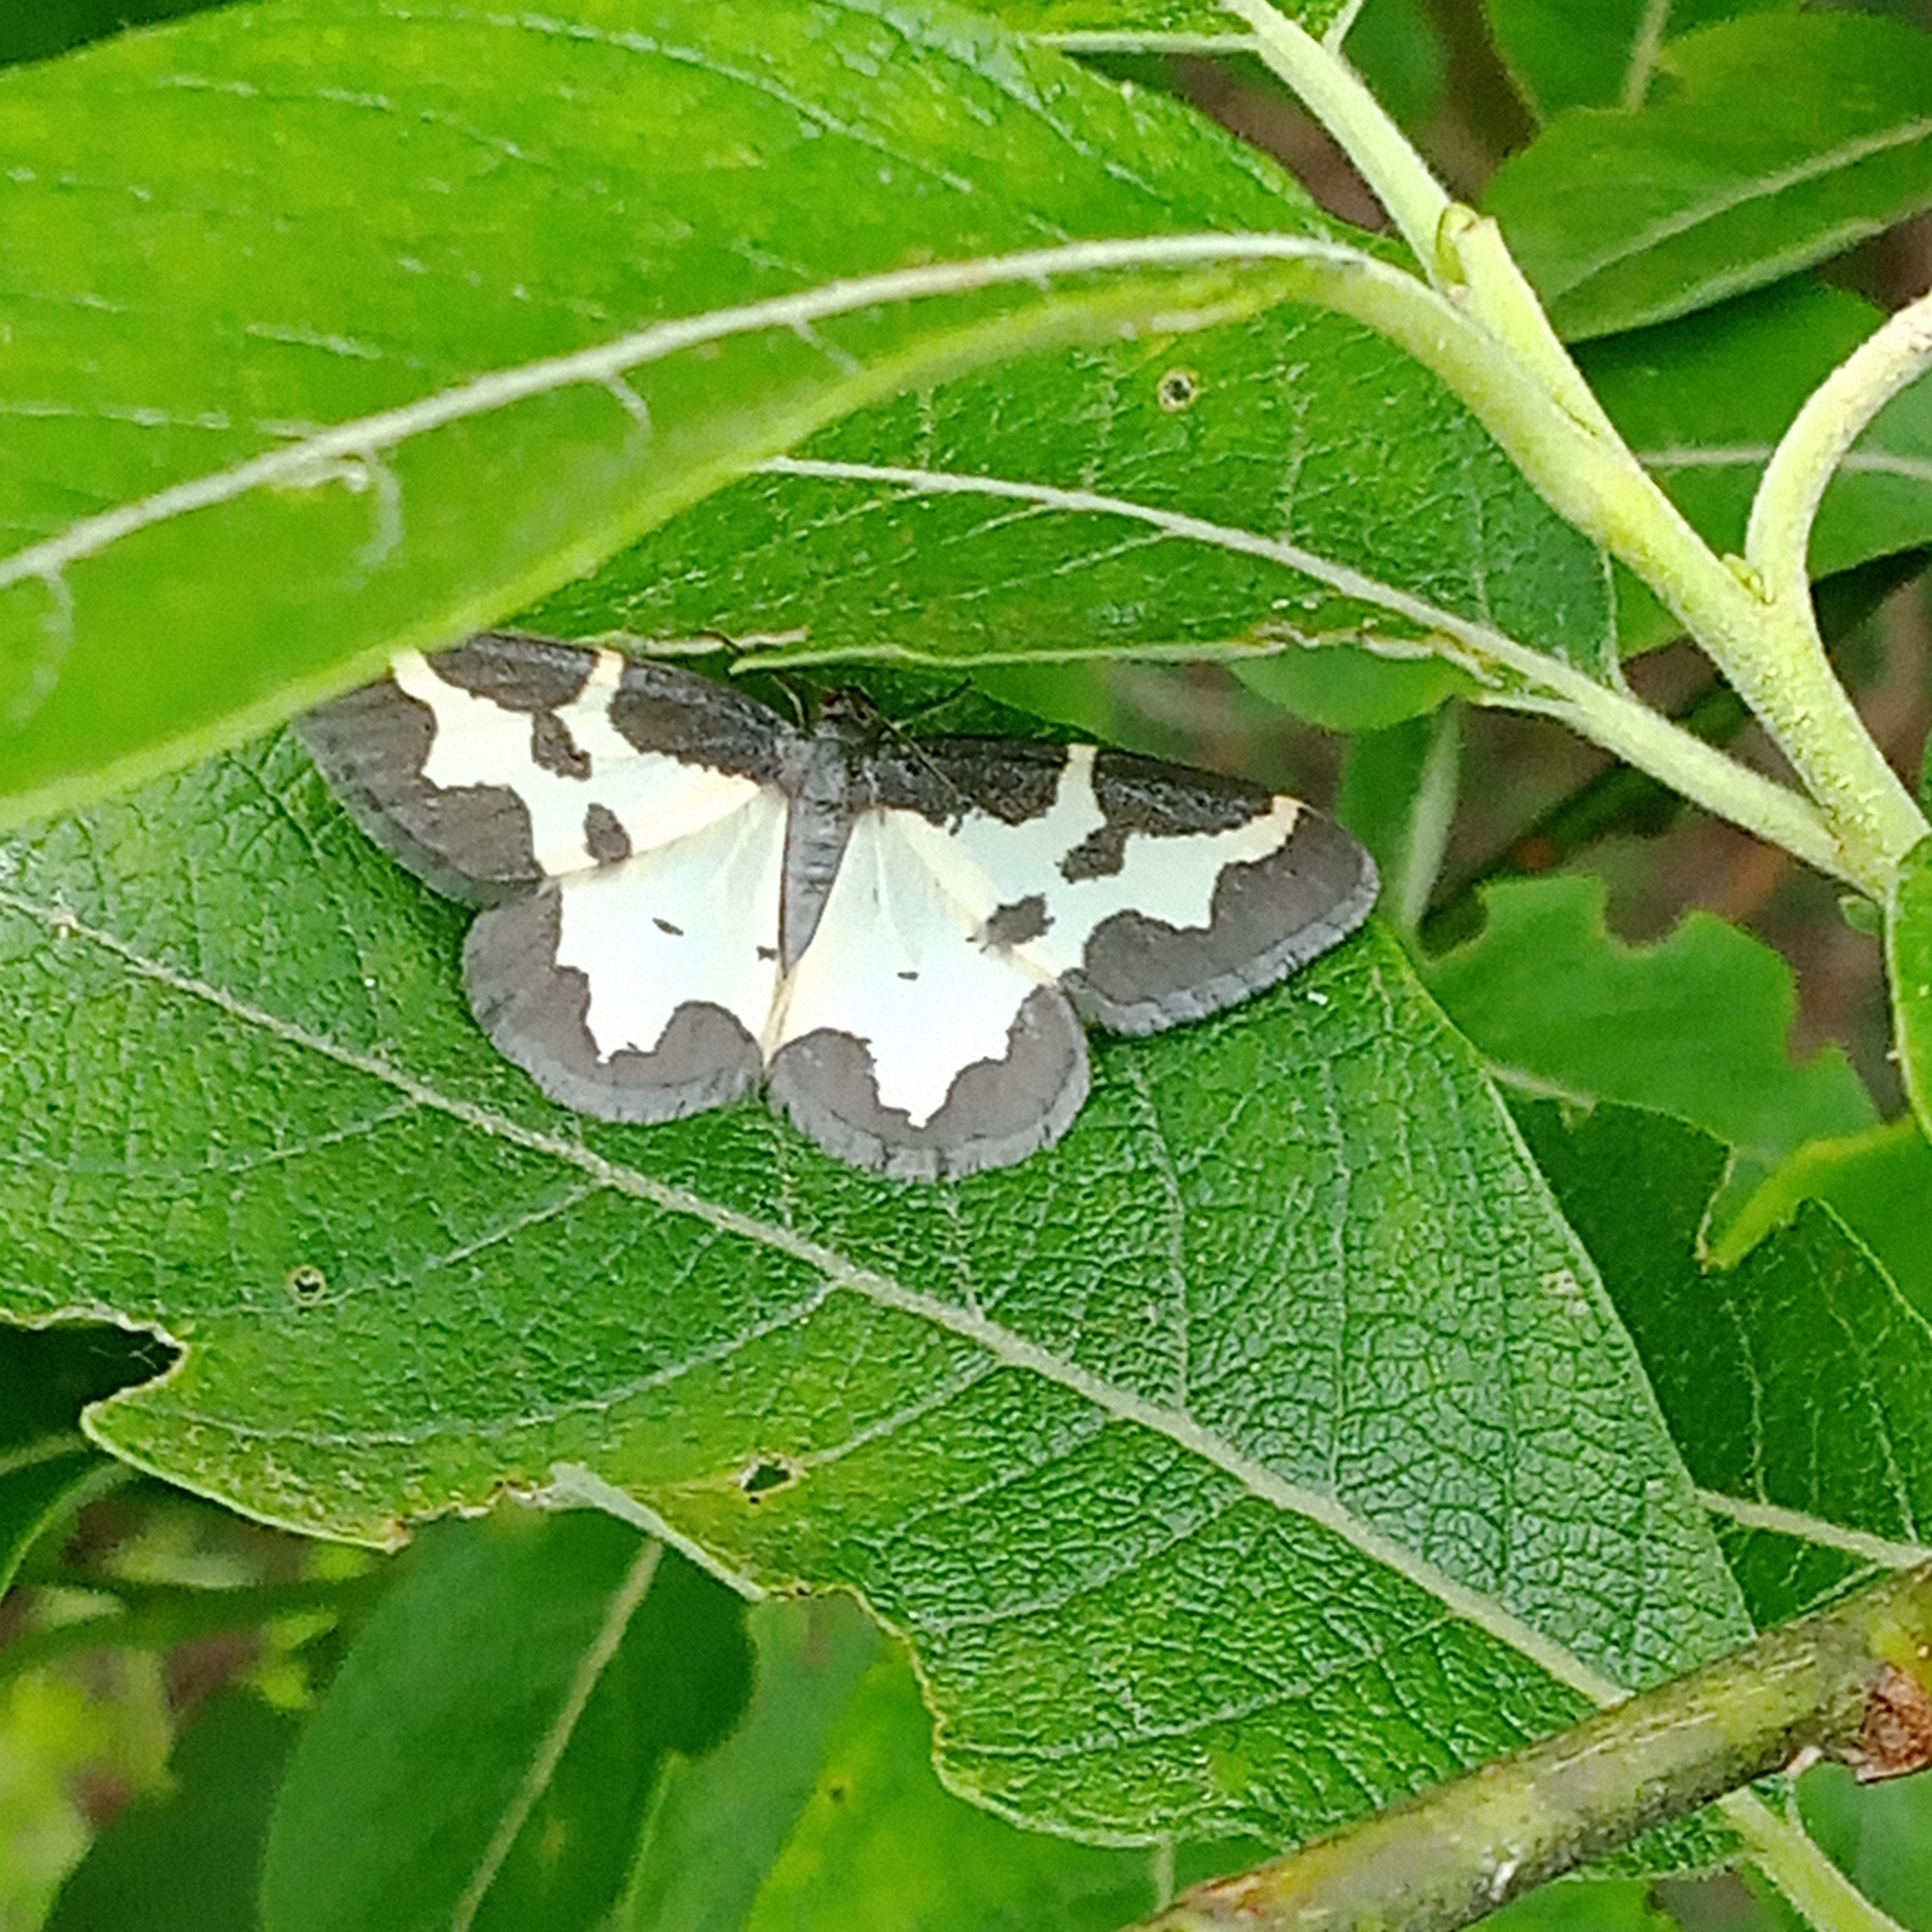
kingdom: Animalia
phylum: Arthropoda
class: Insecta
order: Lepidoptera
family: Geometridae
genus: Lomaspilis
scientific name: Lomaspilis marginata
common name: Clouded border
